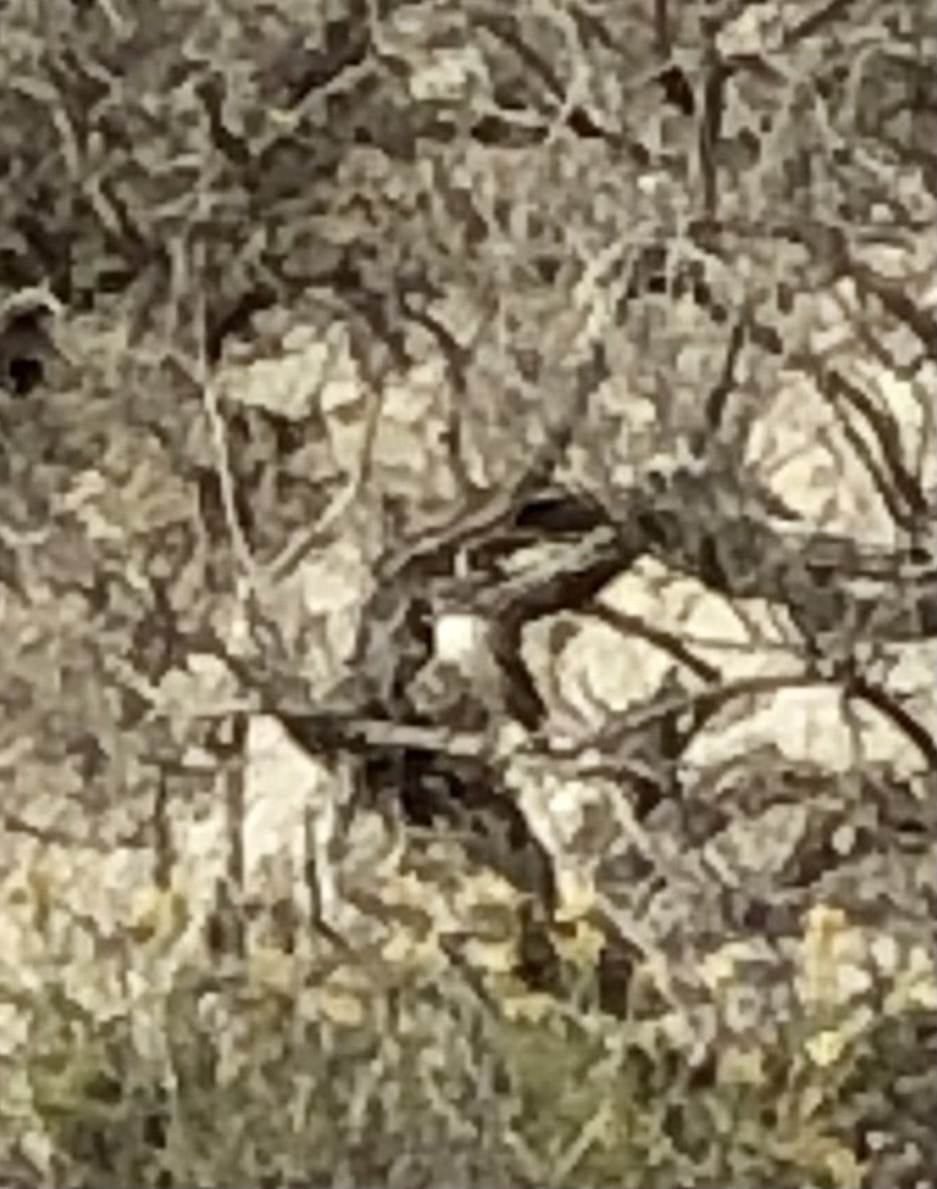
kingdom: Animalia
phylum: Chordata
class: Aves
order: Passeriformes
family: Troglodytidae
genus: Salpinctes
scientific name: Salpinctes obsoletus
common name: Rock wren
